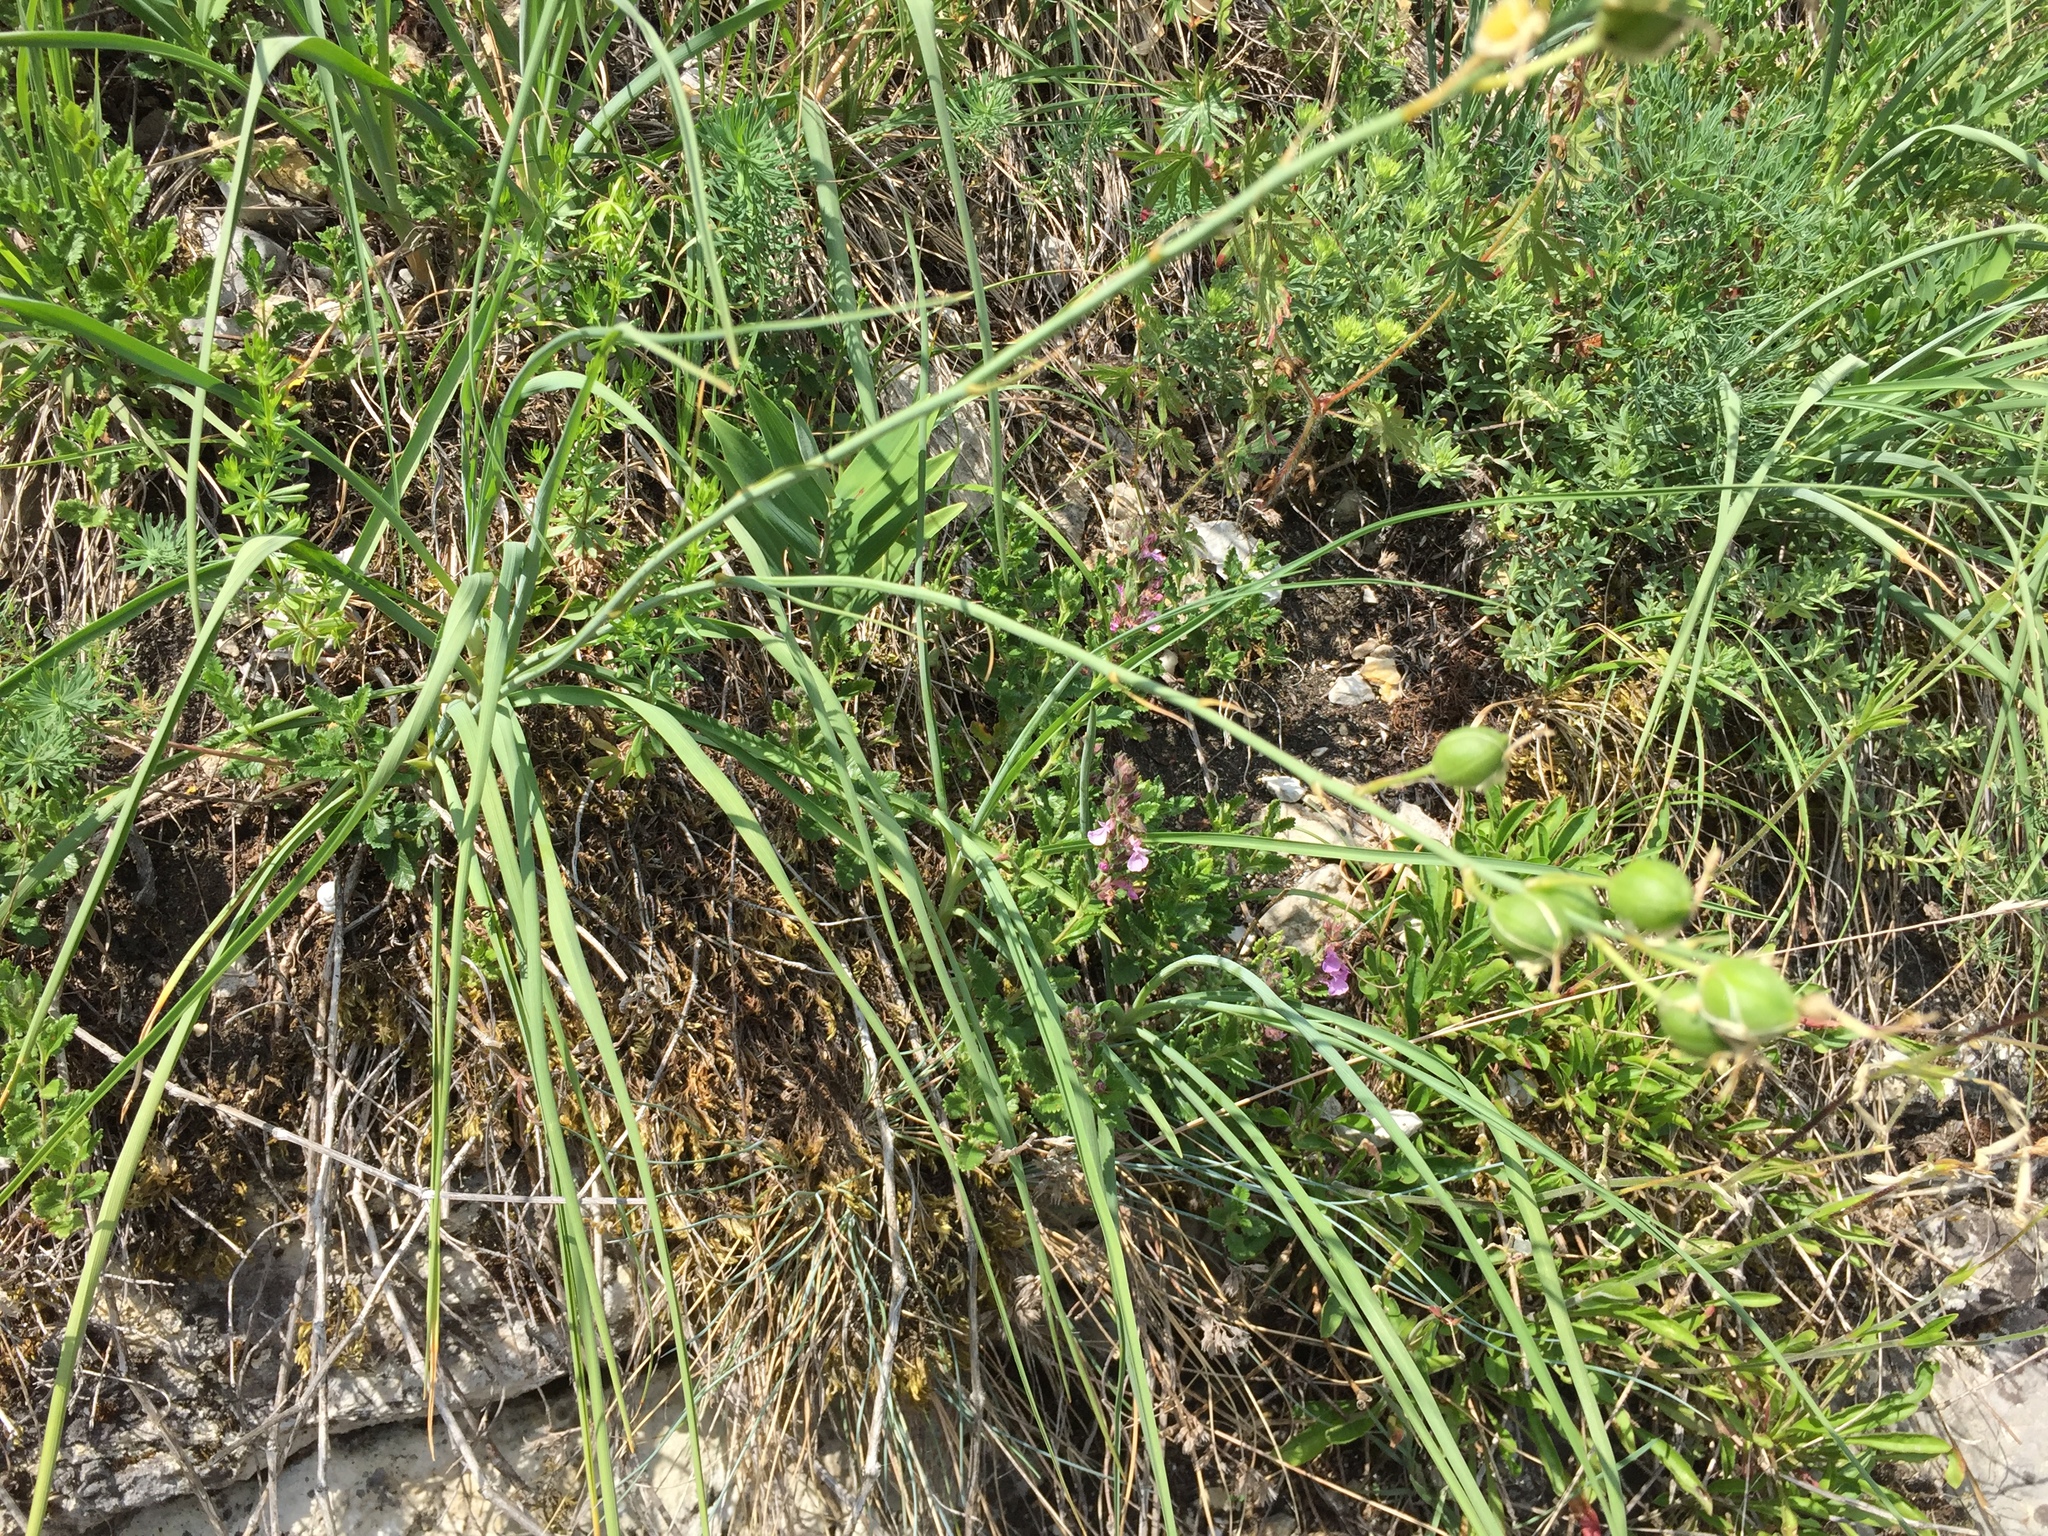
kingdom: Plantae
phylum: Tracheophyta
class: Liliopsida
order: Asparagales
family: Asparagaceae
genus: Anthericum
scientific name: Anthericum liliago
